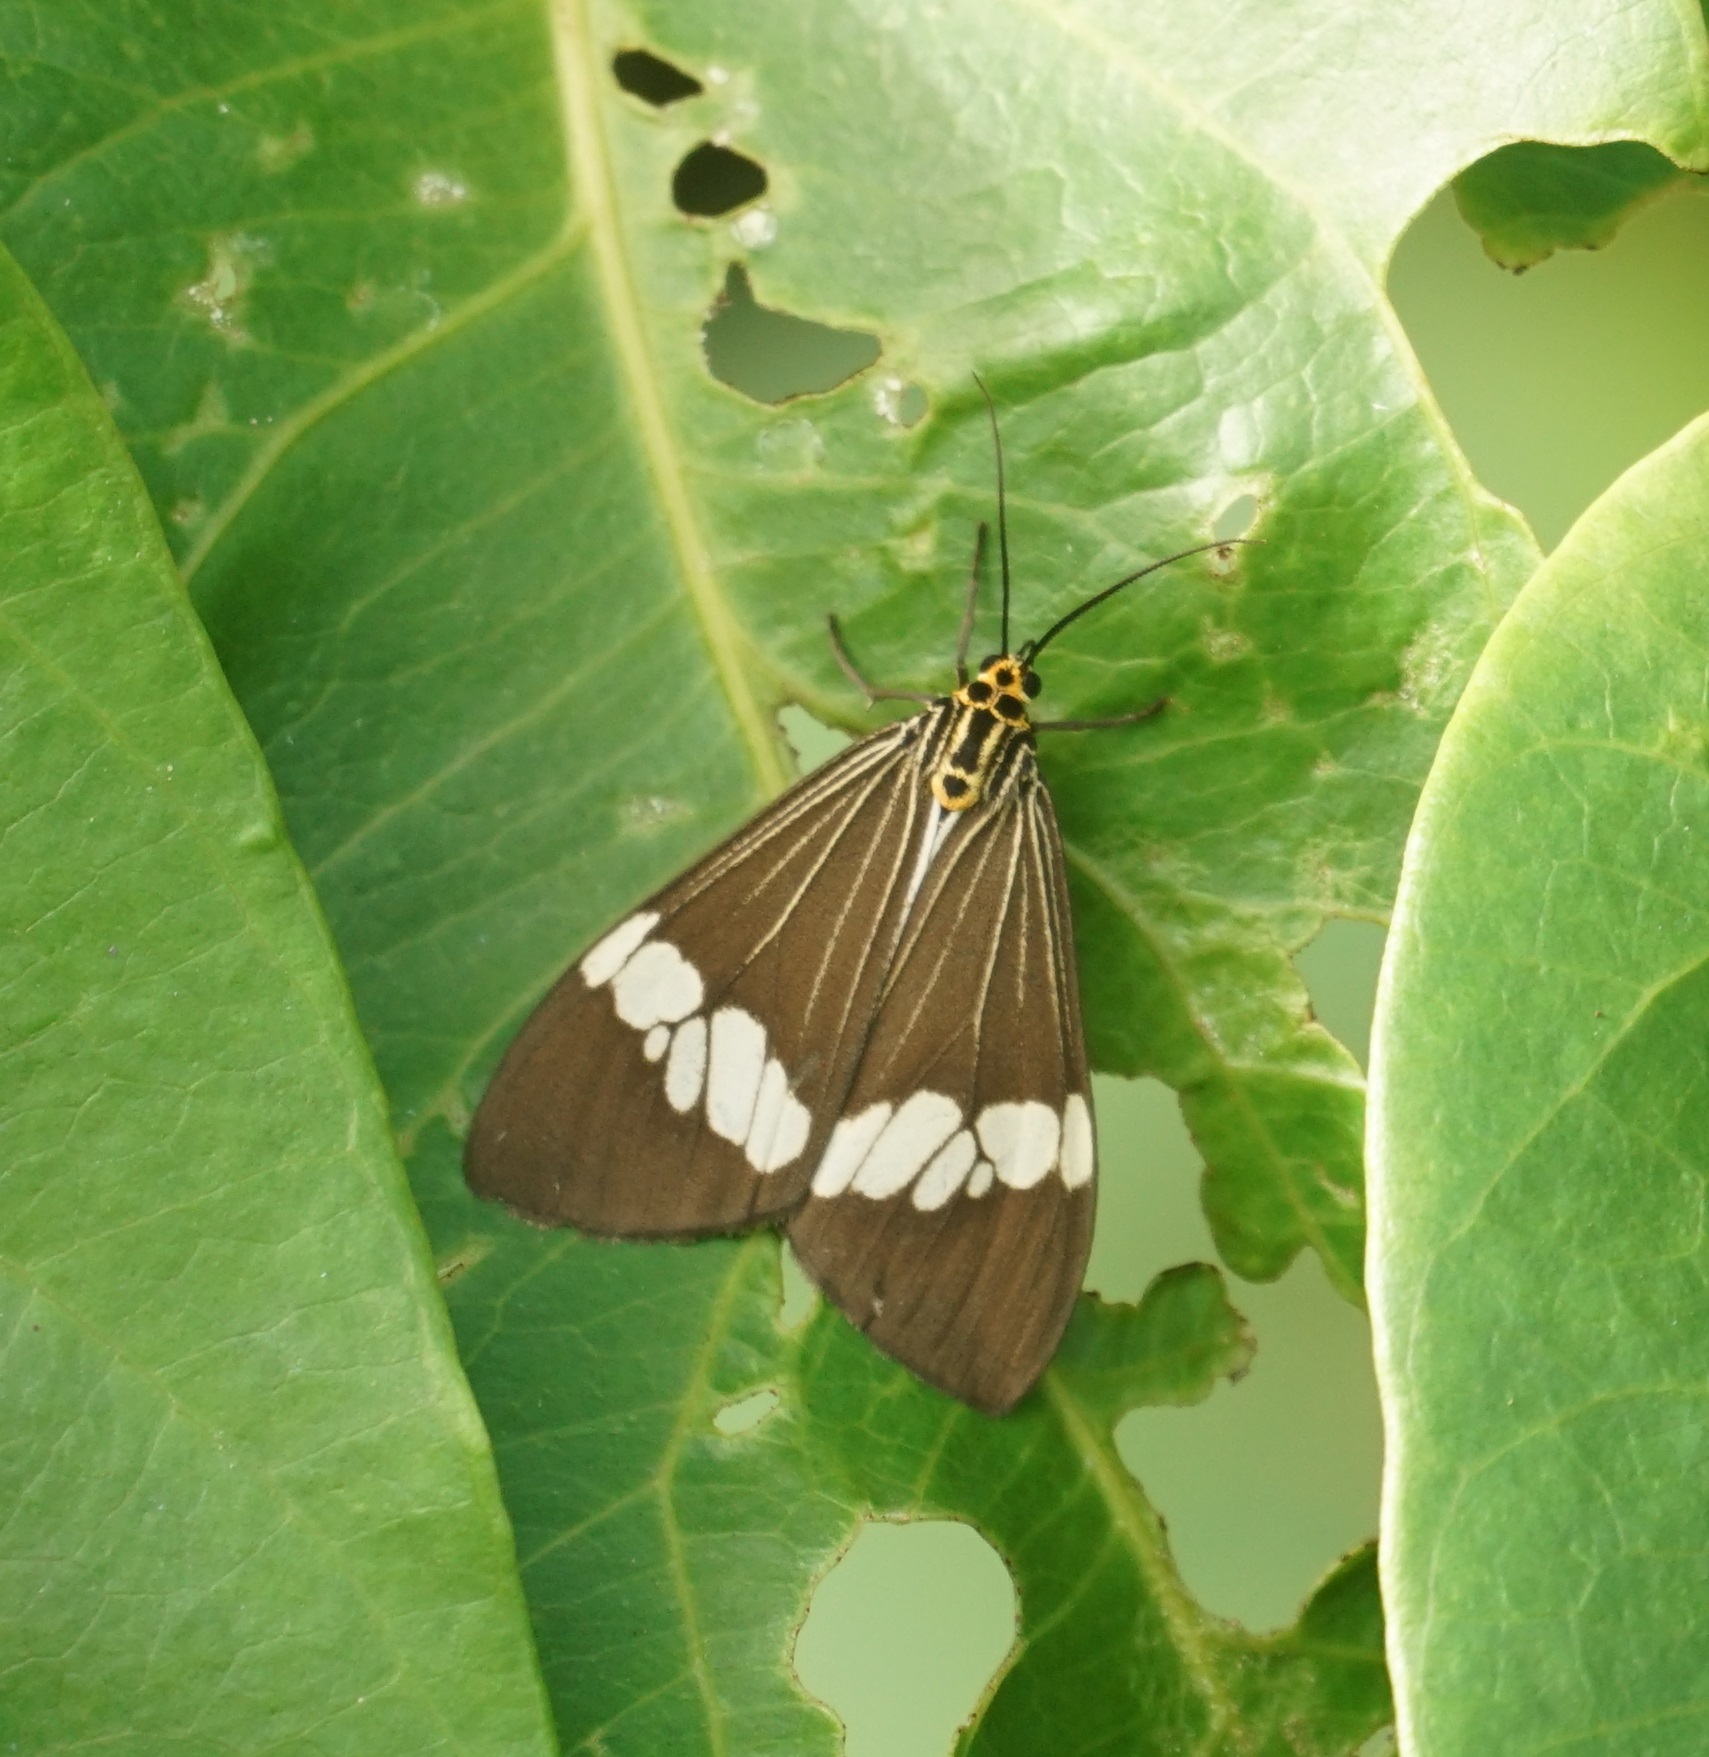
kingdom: Animalia
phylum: Arthropoda
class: Insecta
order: Lepidoptera
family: Erebidae
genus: Nyctemera
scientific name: Nyctemera baulus
